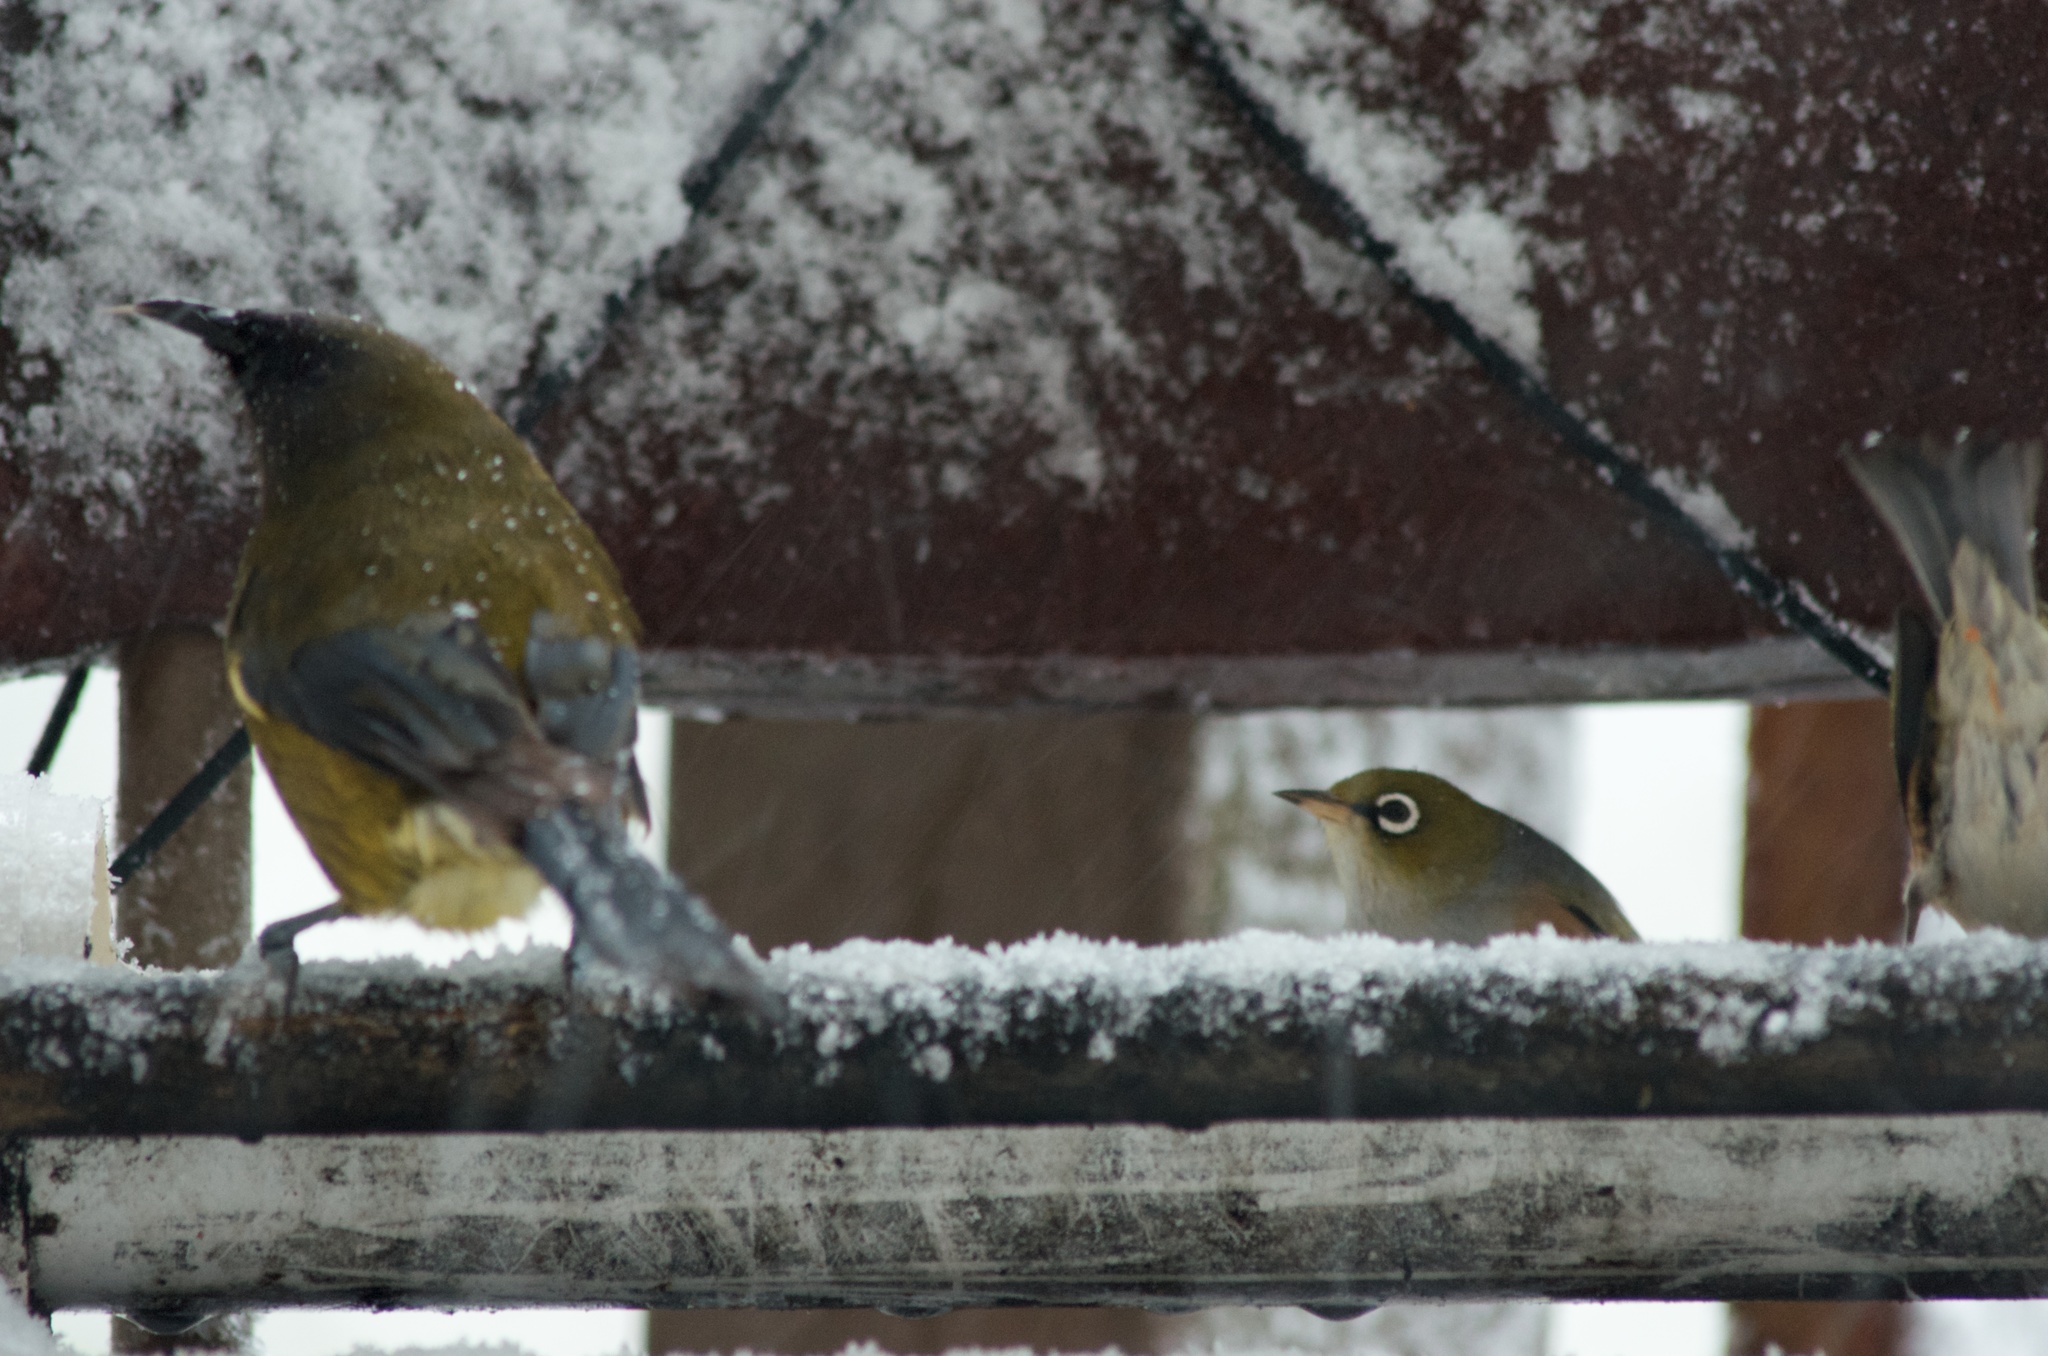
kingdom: Animalia
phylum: Chordata
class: Aves
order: Passeriformes
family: Meliphagidae
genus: Anthornis
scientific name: Anthornis melanura
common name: New zealand bellbird
